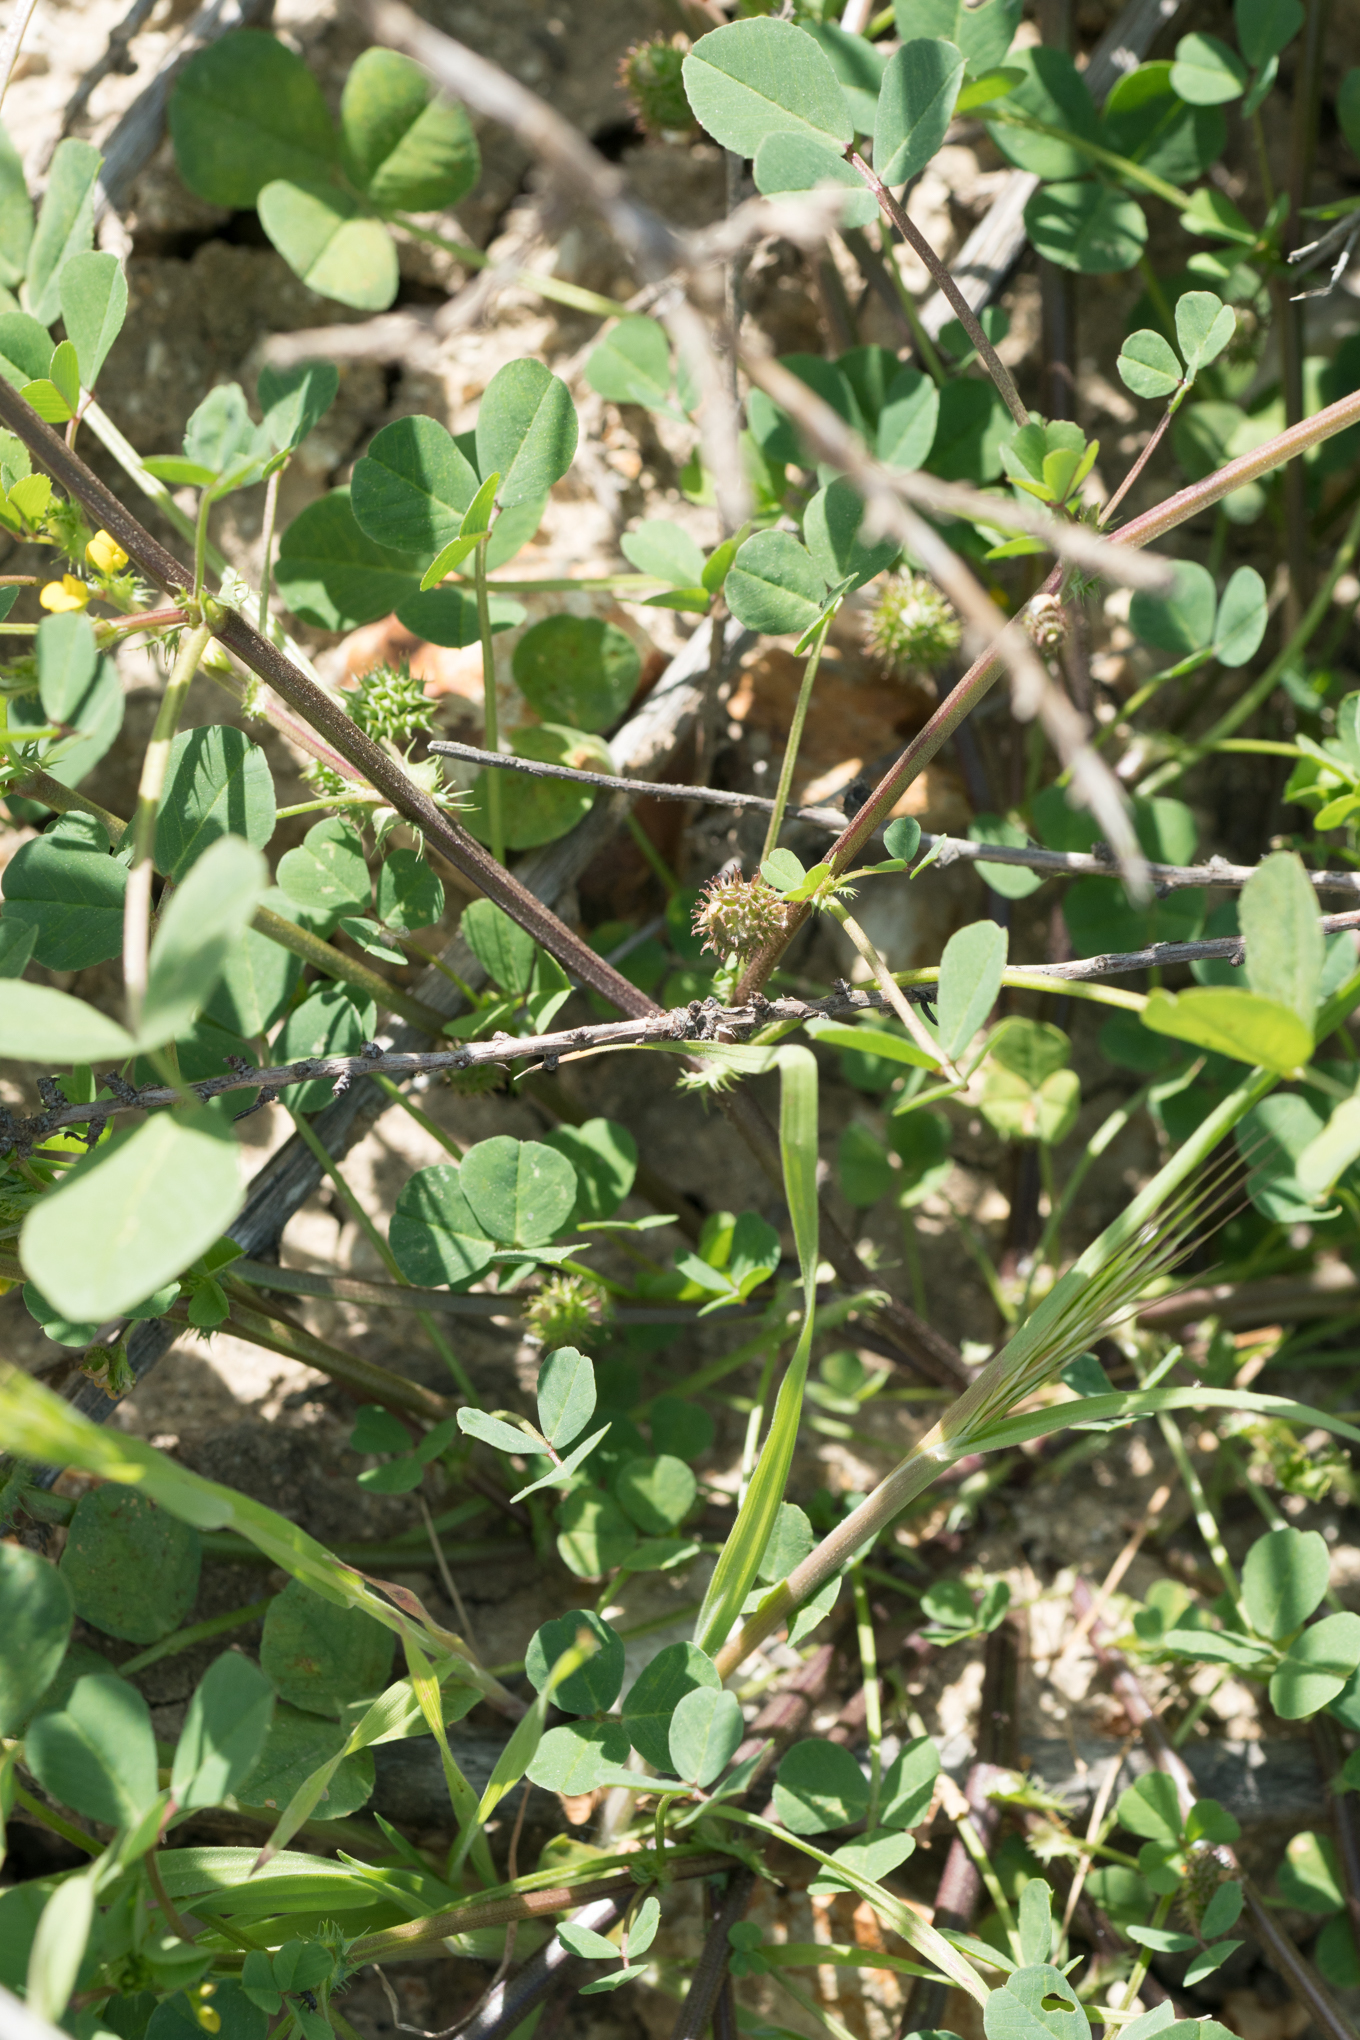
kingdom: Plantae
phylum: Tracheophyta
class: Magnoliopsida
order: Fabales
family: Fabaceae
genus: Medicago
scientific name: Medicago polymorpha
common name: Burclover
